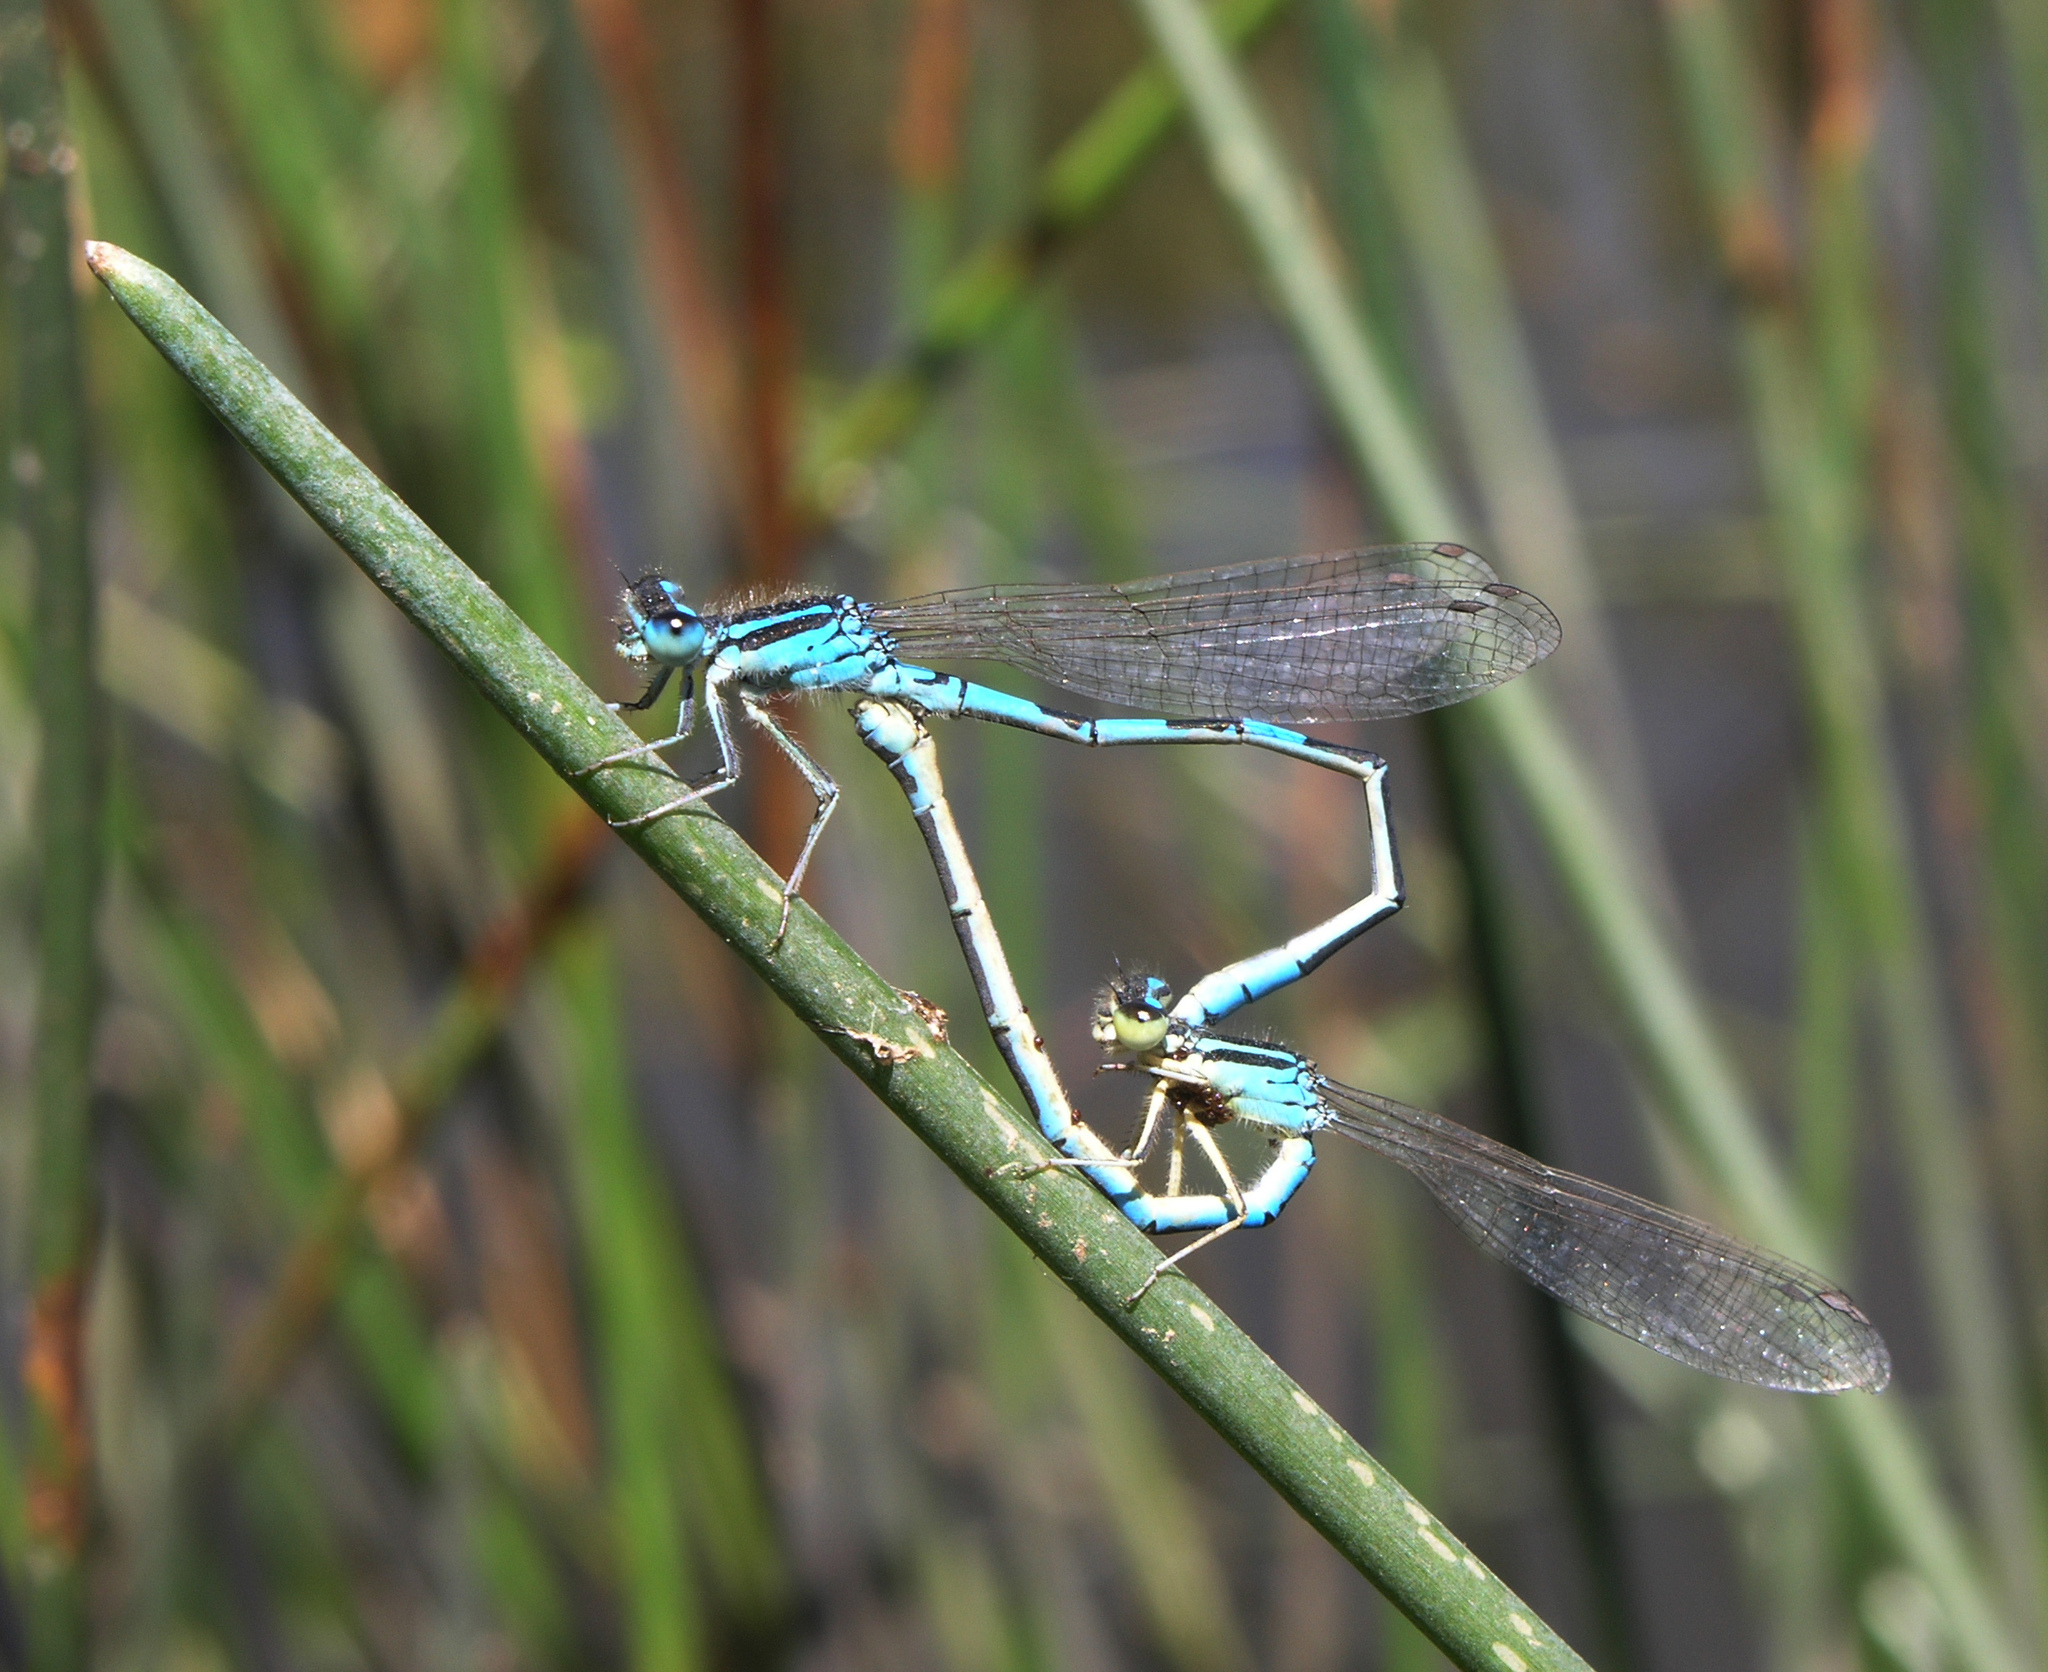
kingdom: Animalia
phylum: Arthropoda
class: Insecta
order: Odonata
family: Coenagrionidae
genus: Coenagrion
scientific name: Coenagrion scitulum
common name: Dainty bluet
